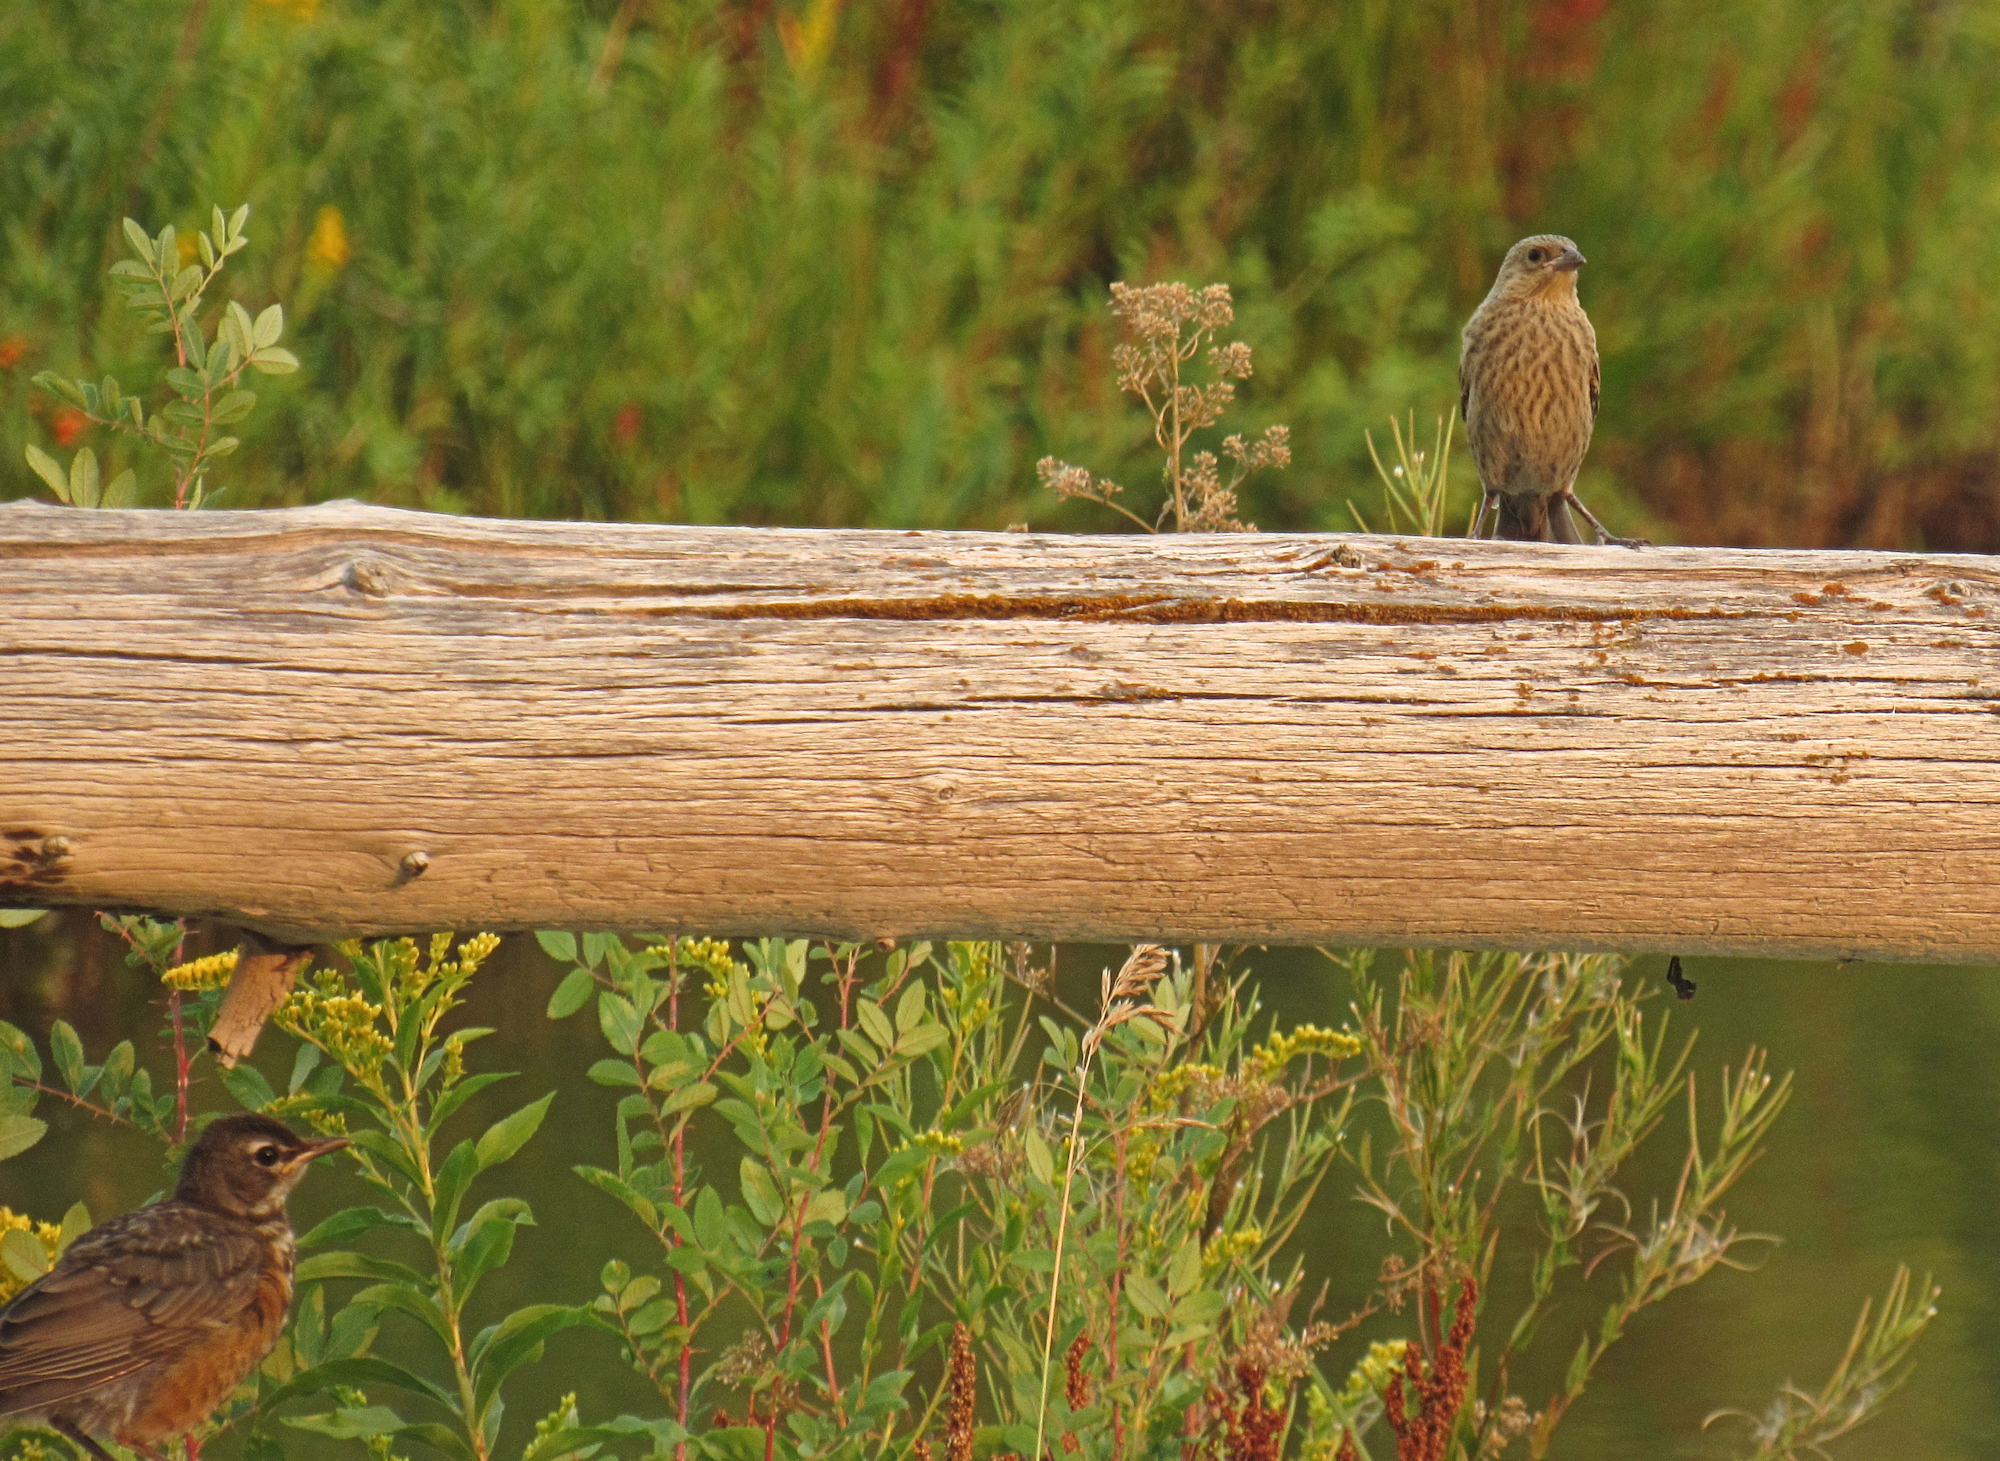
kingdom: Animalia
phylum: Chordata
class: Aves
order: Passeriformes
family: Turdidae
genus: Turdus
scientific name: Turdus migratorius
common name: American robin
